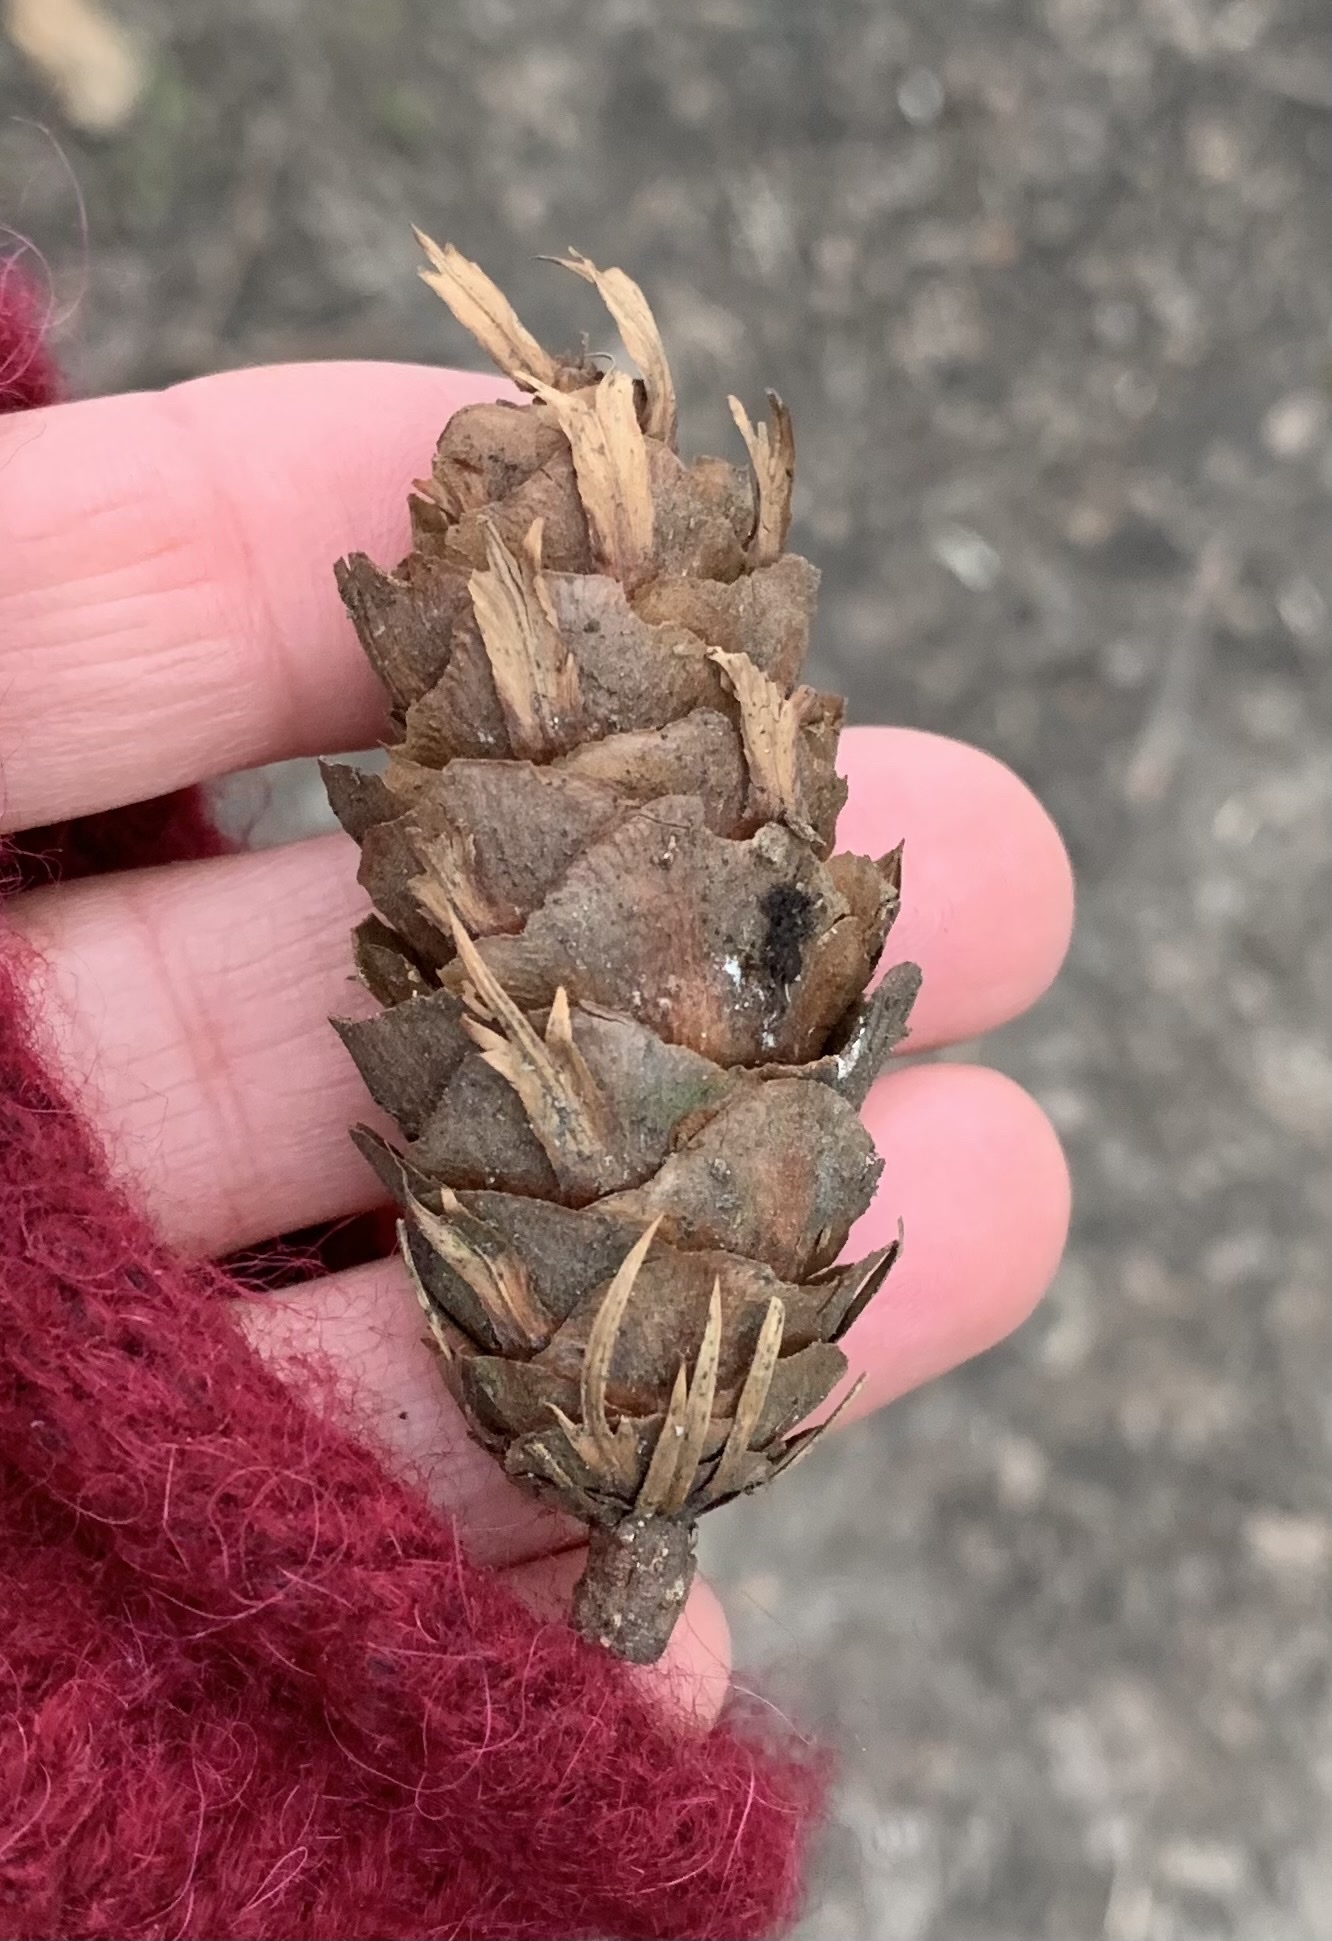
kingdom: Plantae
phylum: Tracheophyta
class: Pinopsida
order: Pinales
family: Pinaceae
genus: Pseudotsuga
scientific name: Pseudotsuga menziesii
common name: Douglas fir
